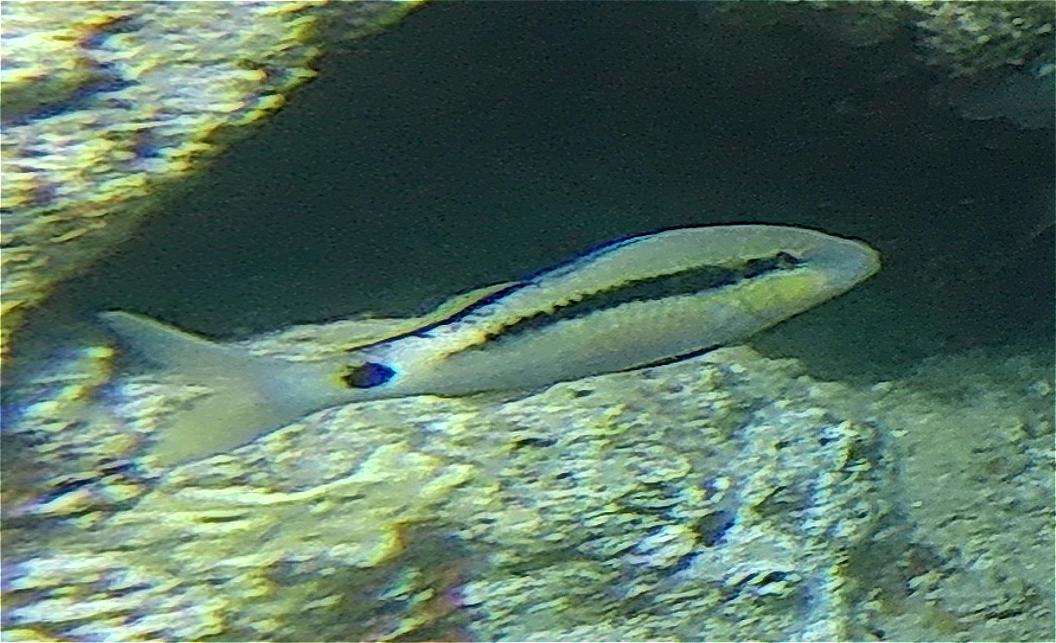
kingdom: Animalia
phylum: Chordata
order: Perciformes
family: Mullidae
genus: Parupeneus
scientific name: Parupeneus forsskali
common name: Red sea goatfish
